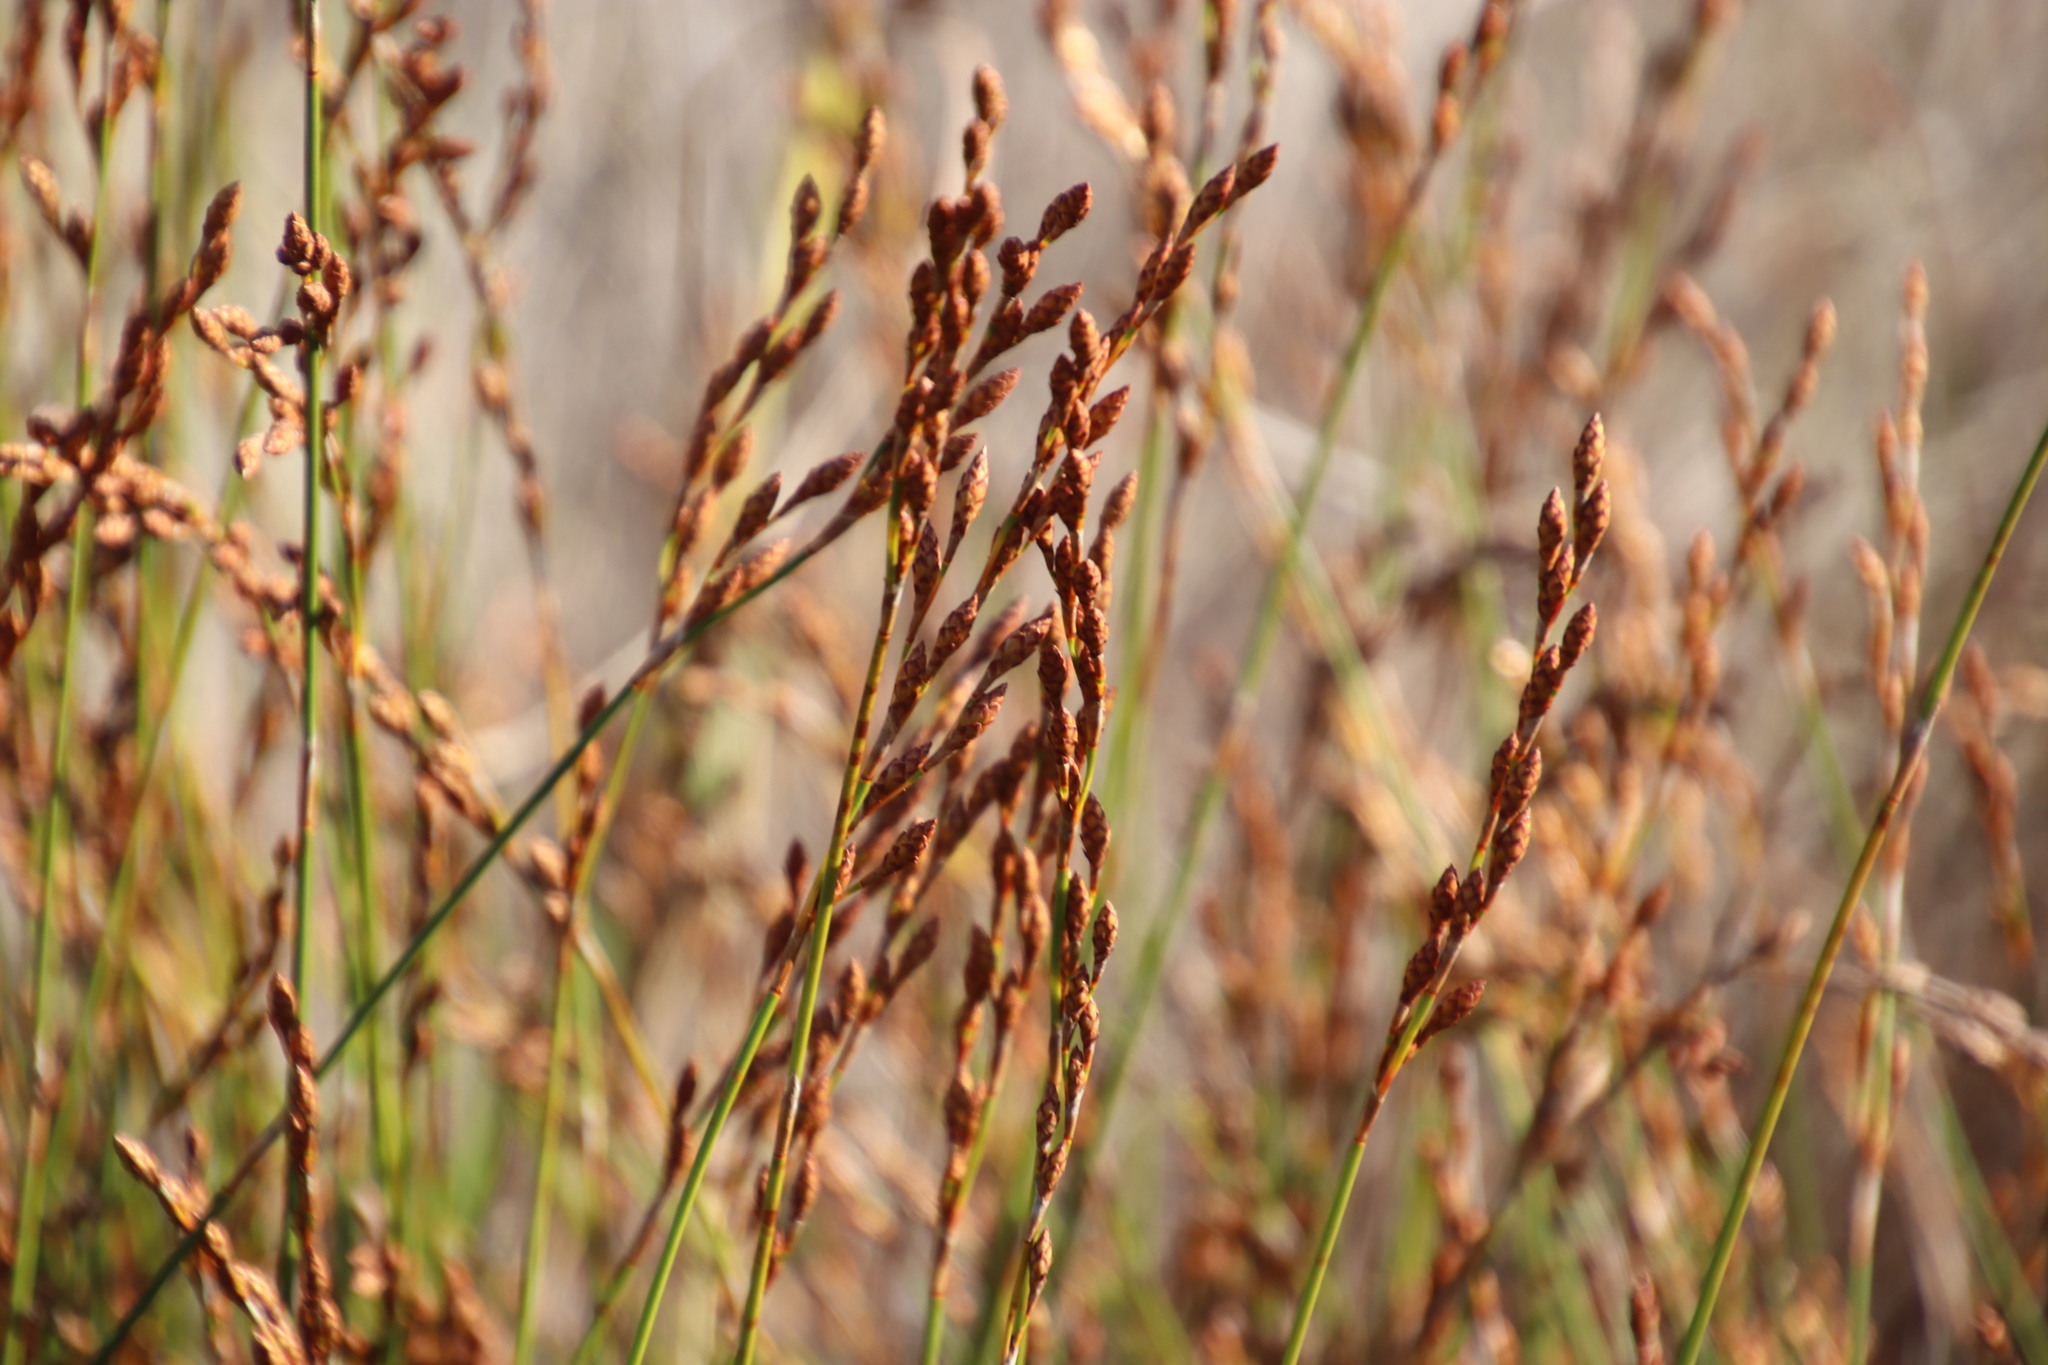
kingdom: Plantae
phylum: Tracheophyta
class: Liliopsida
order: Poales
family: Restionaceae
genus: Restio
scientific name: Restio bifurcus
